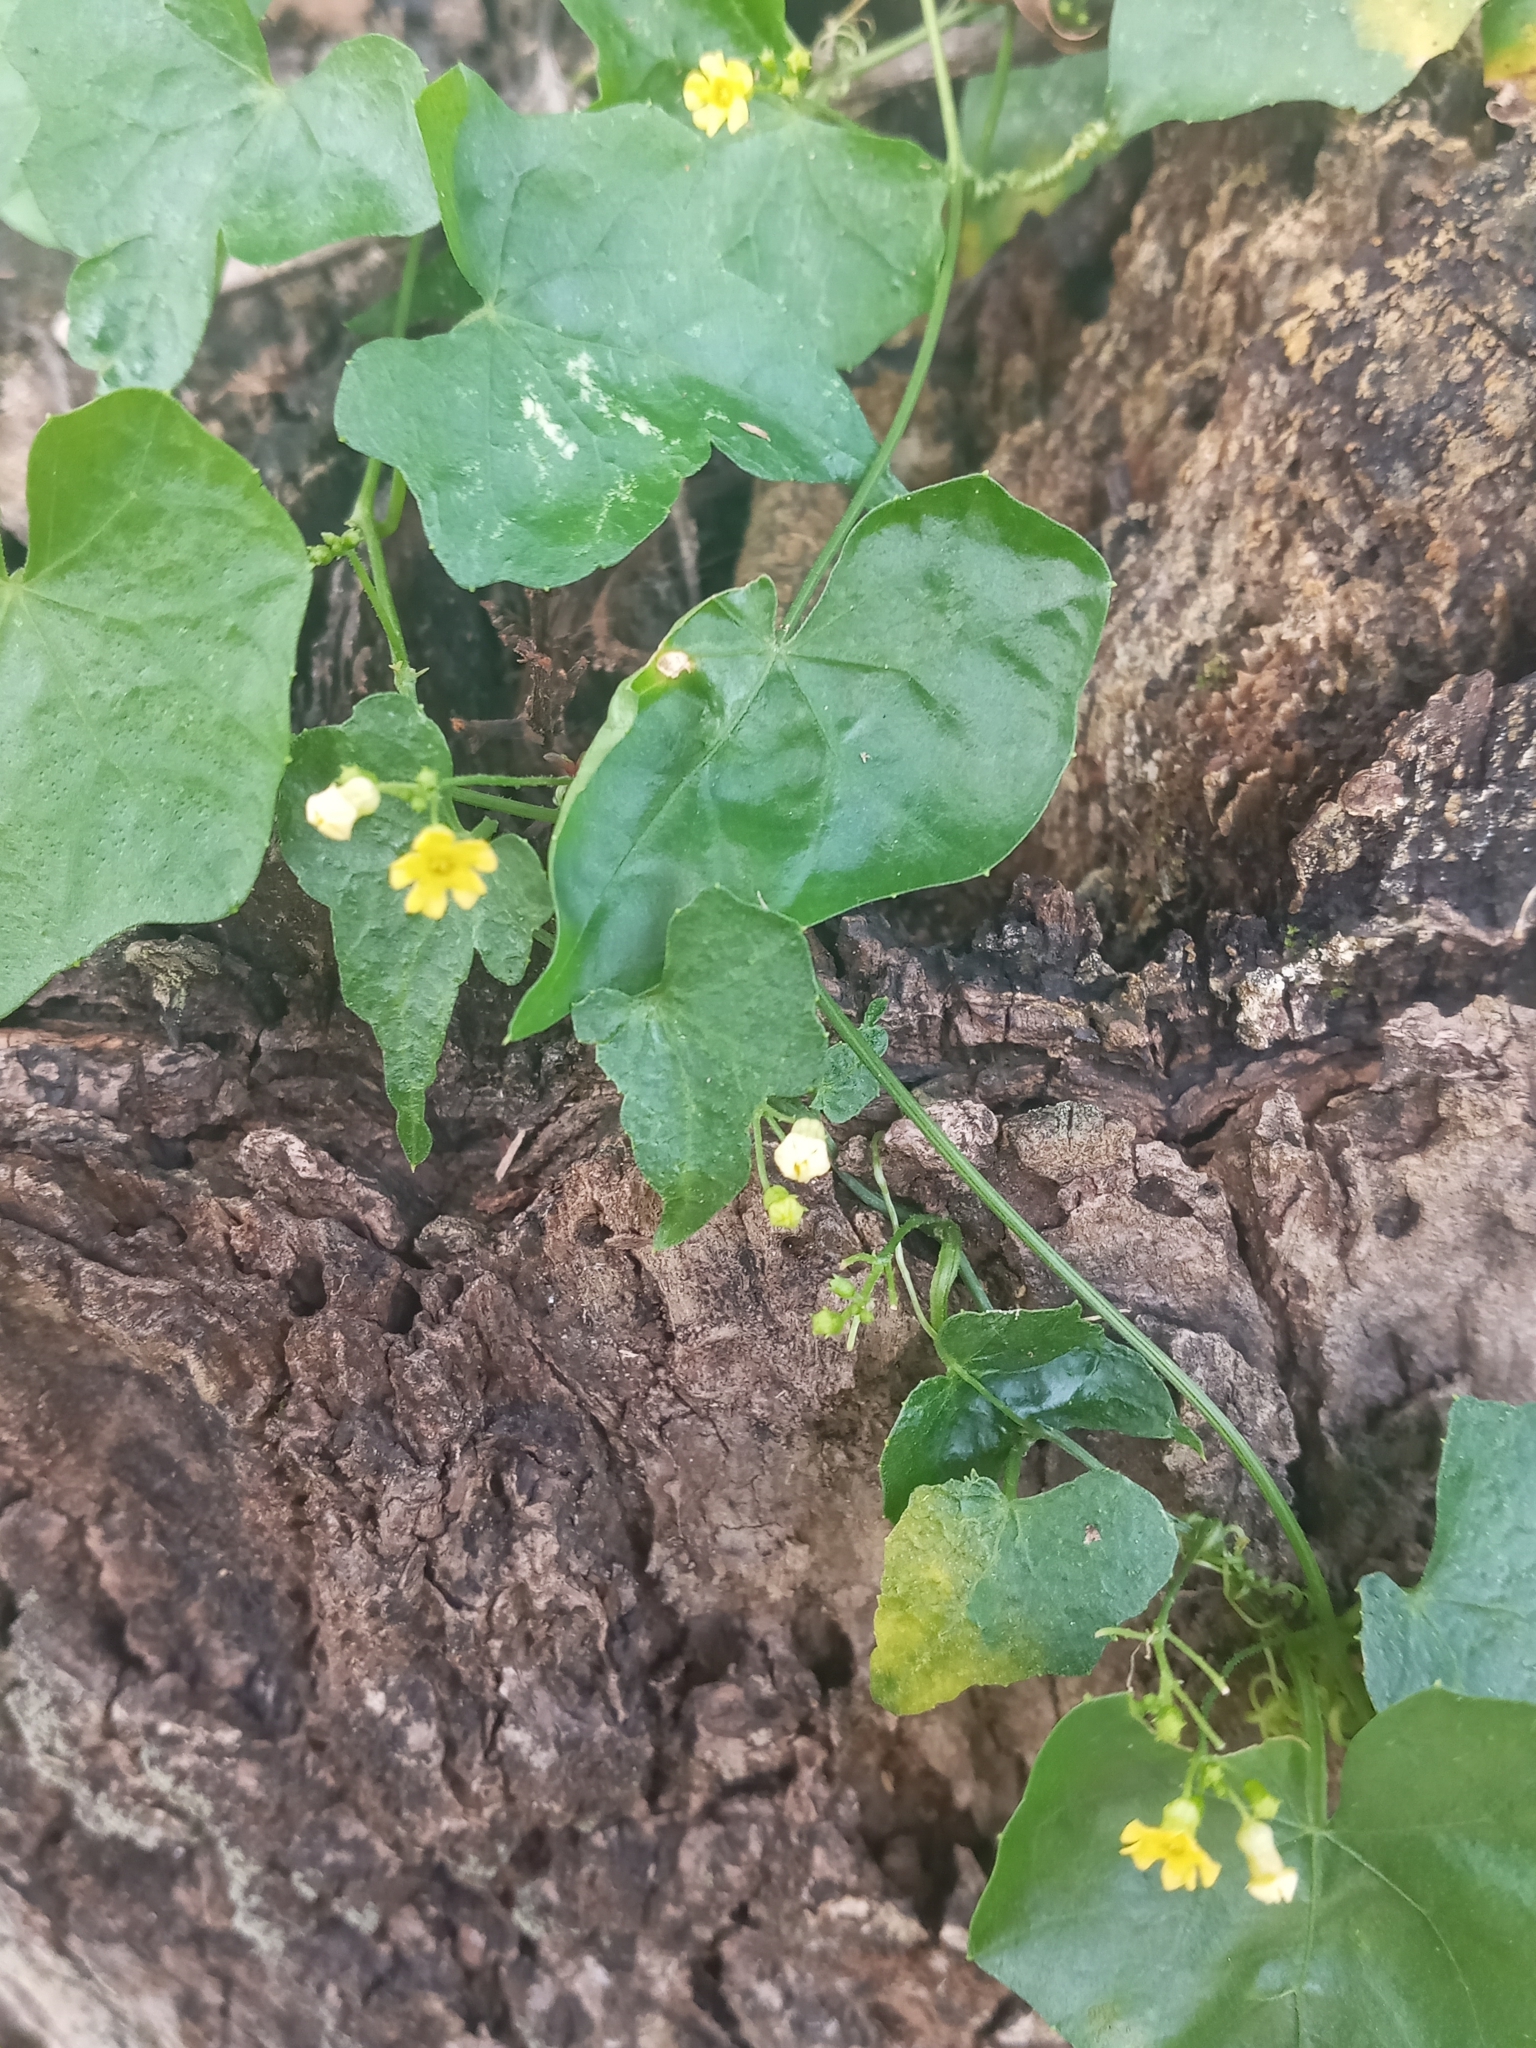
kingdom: Plantae
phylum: Tracheophyta
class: Magnoliopsida
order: Cucurbitales
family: Cucurbitaceae
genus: Melothria
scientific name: Melothria pendula
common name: Creeping-cucumber
